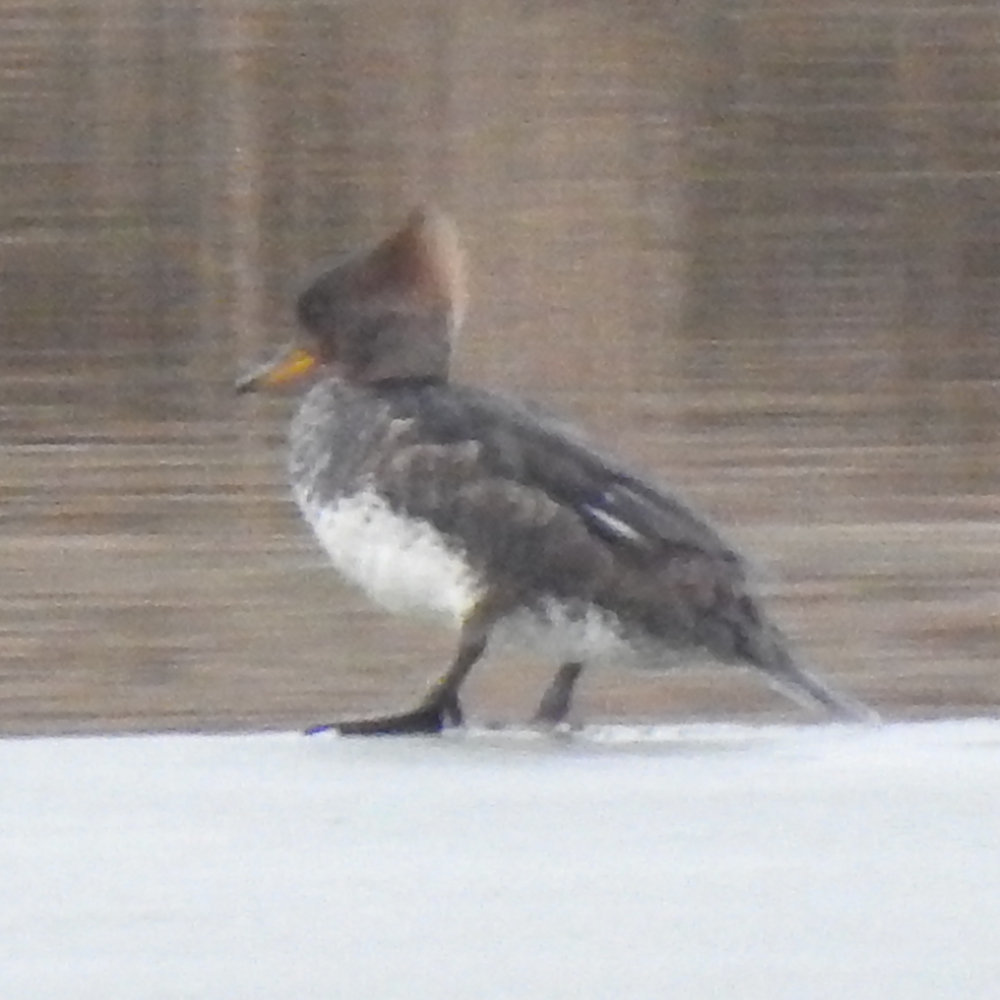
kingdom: Animalia
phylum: Chordata
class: Aves
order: Anseriformes
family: Anatidae
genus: Lophodytes
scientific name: Lophodytes cucullatus
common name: Hooded merganser
